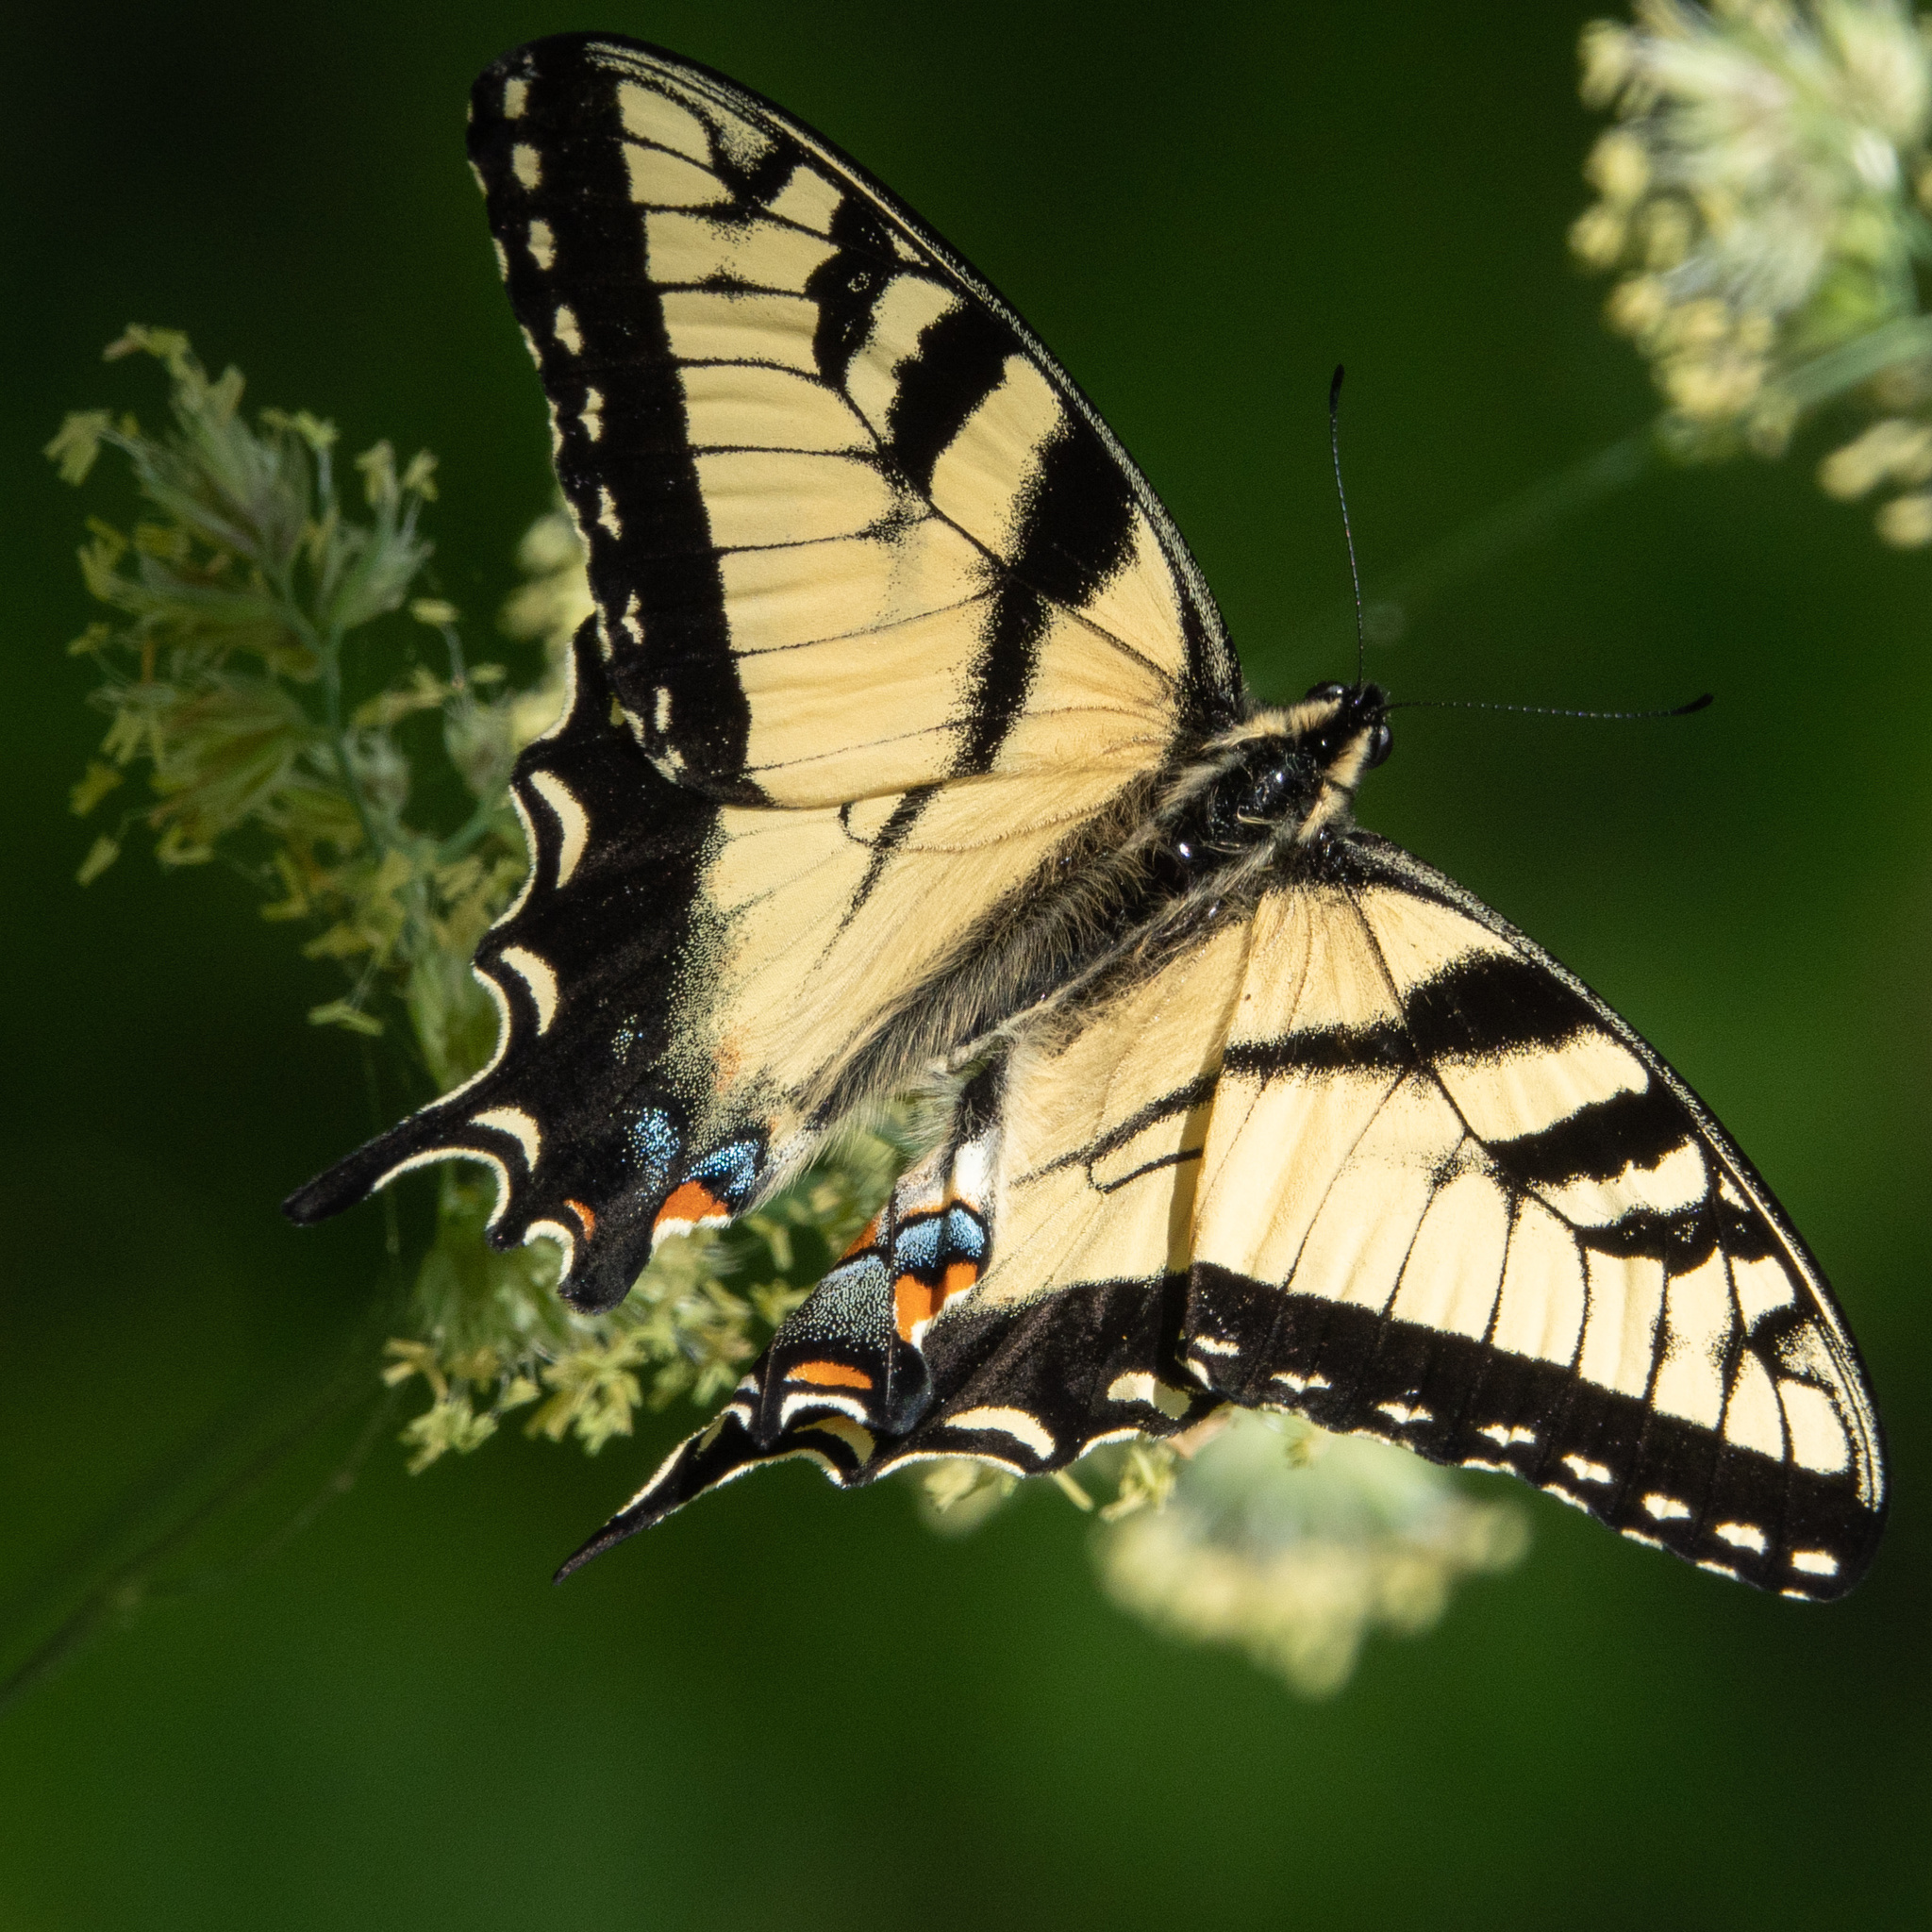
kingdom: Animalia
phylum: Arthropoda
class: Insecta
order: Lepidoptera
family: Papilionidae
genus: Papilio
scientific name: Papilio glaucus
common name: Tiger swallowtail
